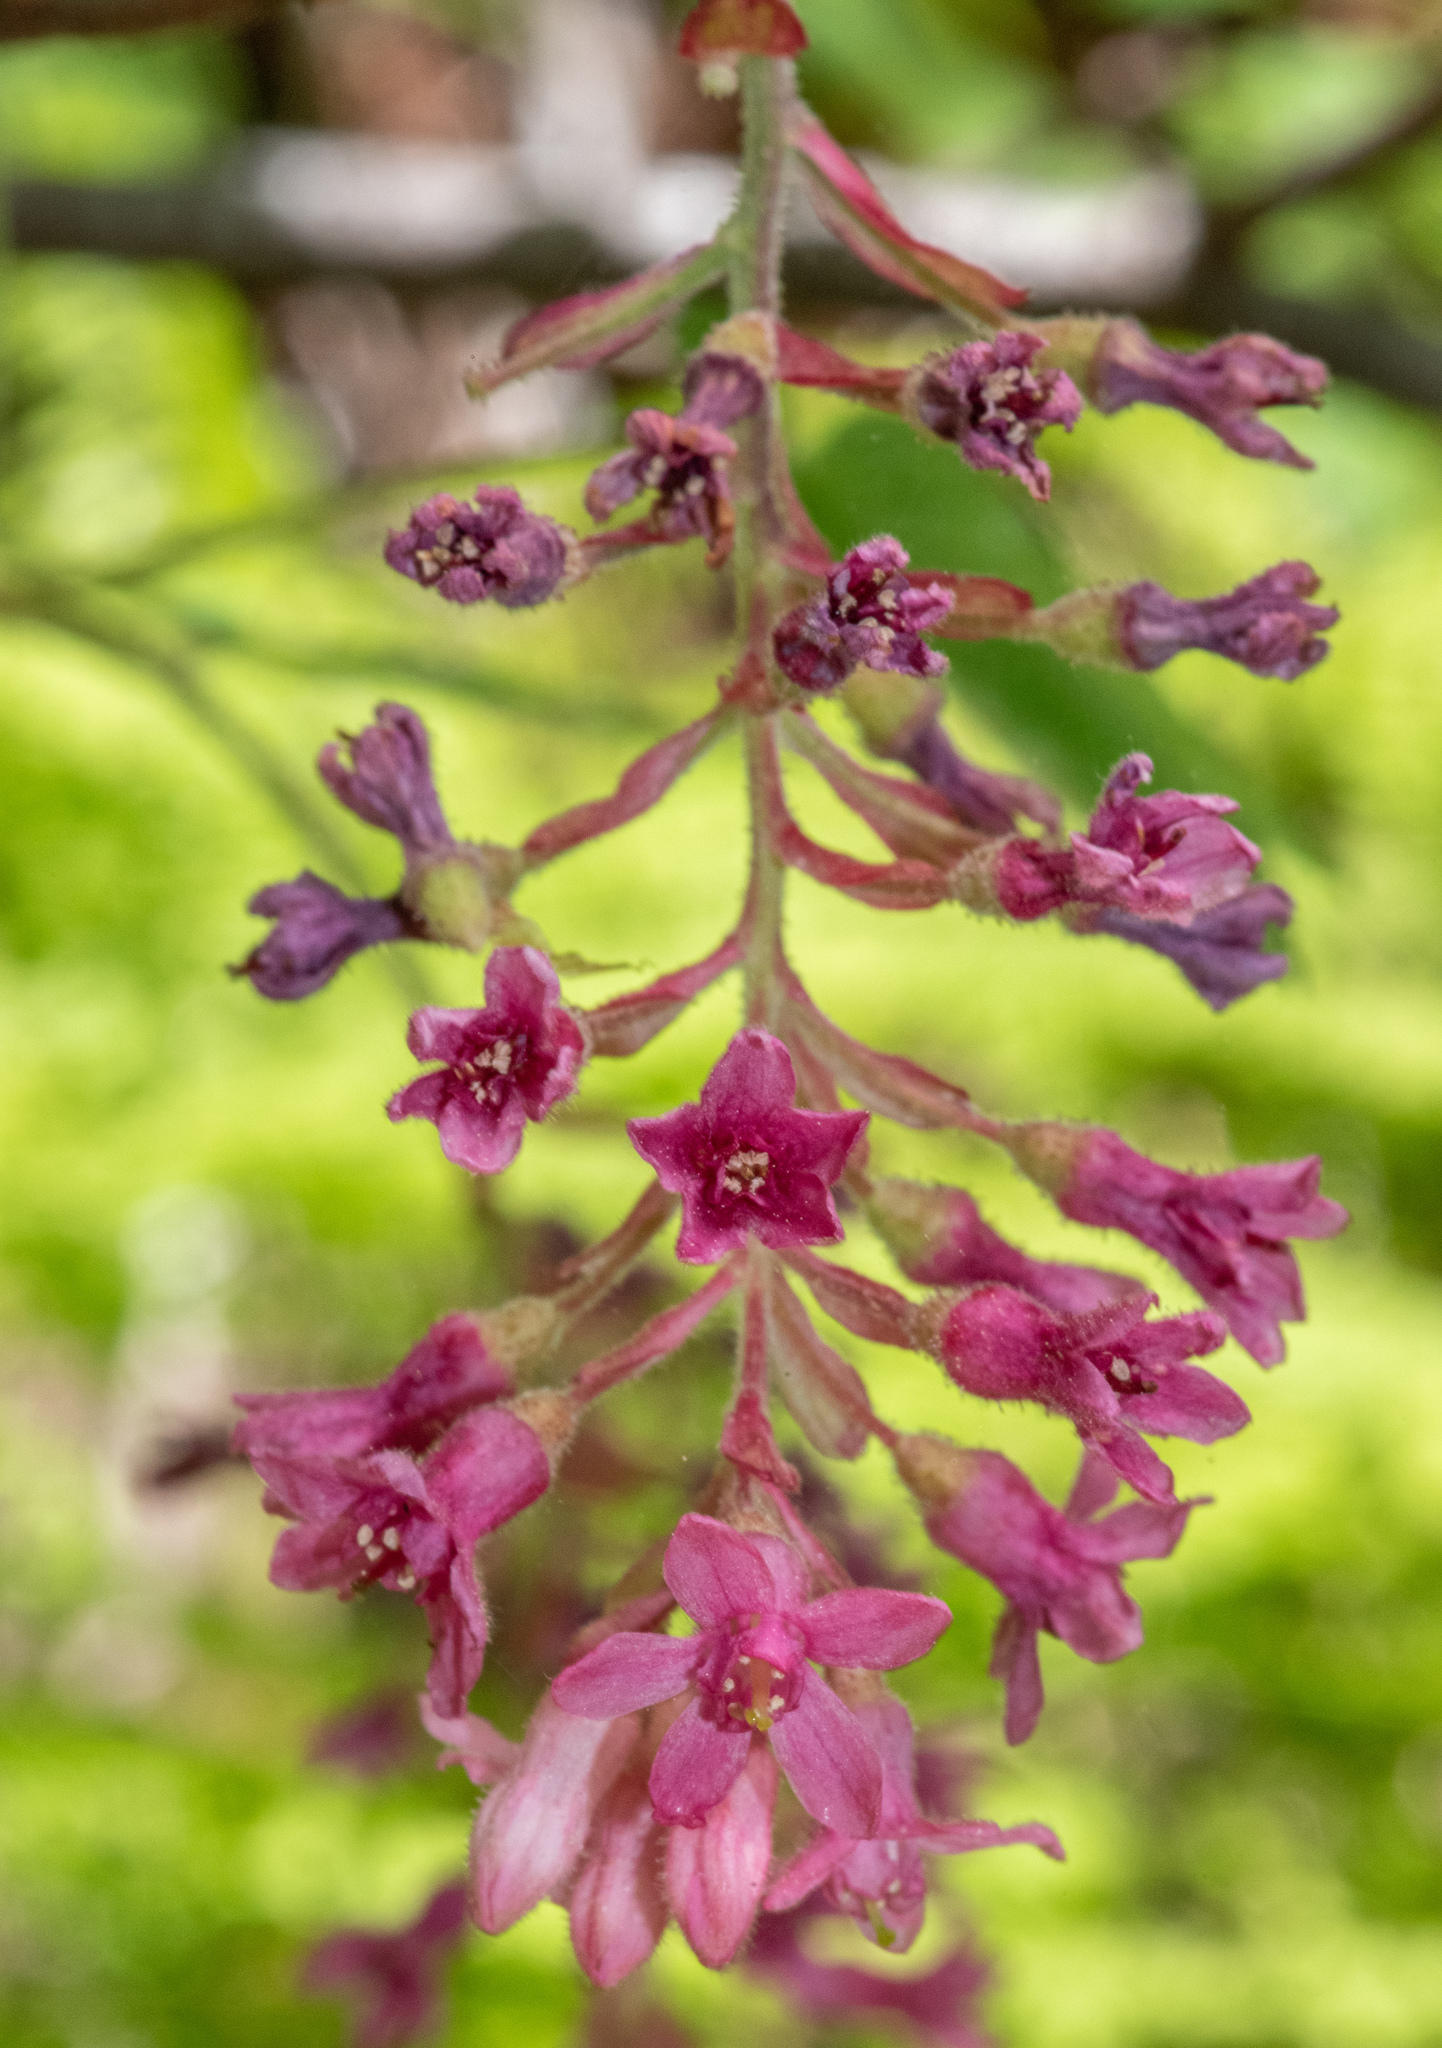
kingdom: Plantae
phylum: Tracheophyta
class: Magnoliopsida
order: Saxifragales
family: Grossulariaceae
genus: Ribes
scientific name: Ribes sanguineum
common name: Flowering currant
